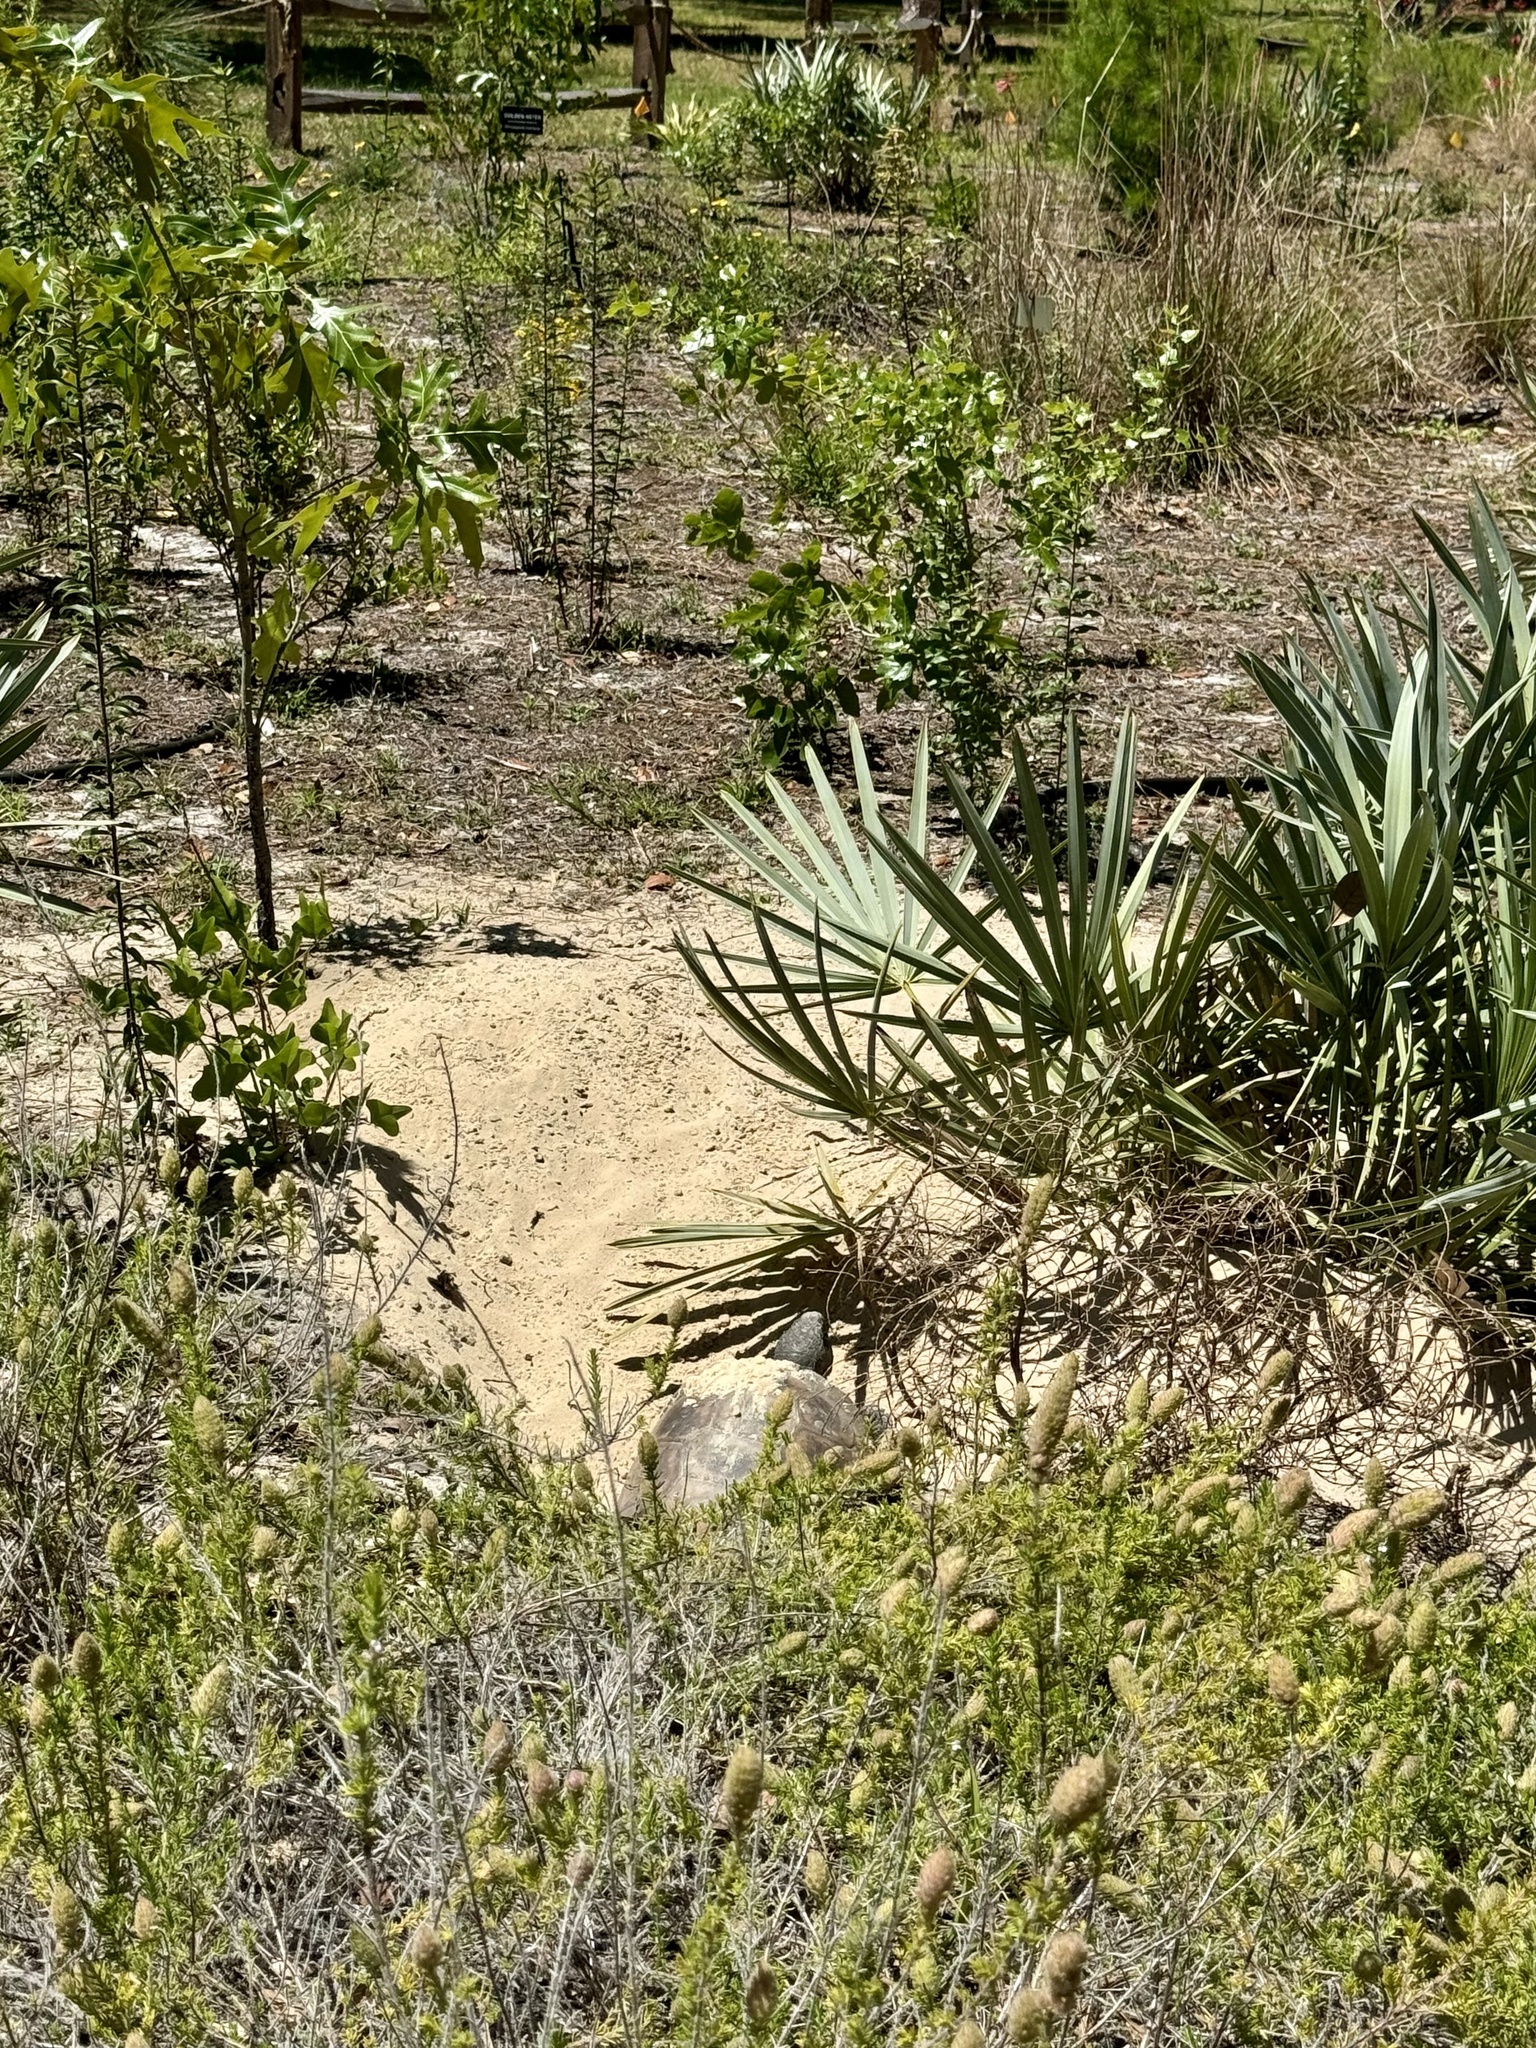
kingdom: Animalia
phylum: Chordata
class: Testudines
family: Testudinidae
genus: Gopherus
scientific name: Gopherus polyphemus
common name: Florida gopher tortoise
